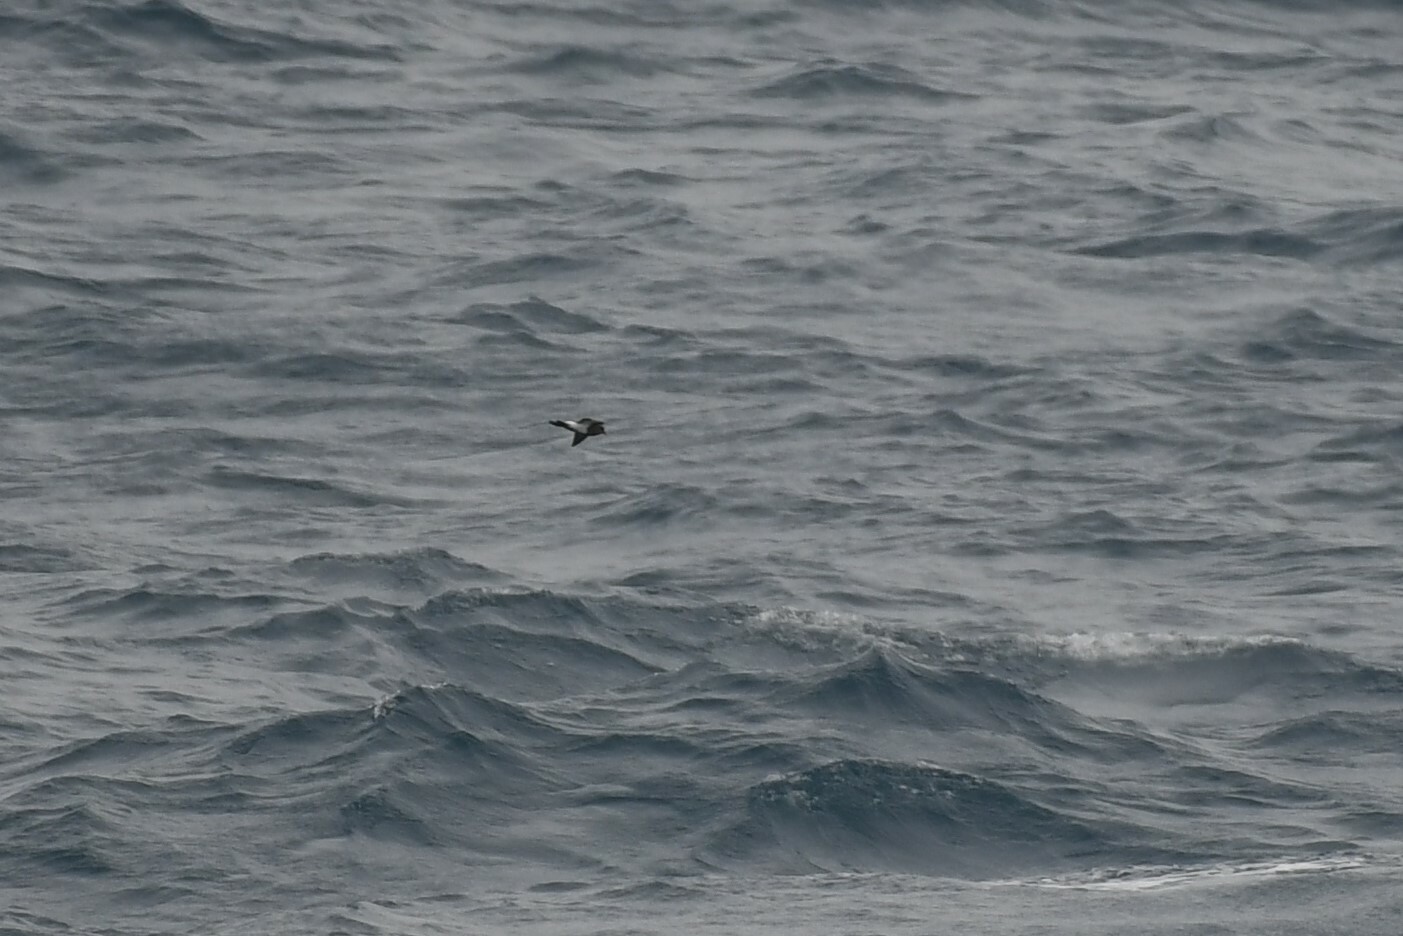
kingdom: Animalia
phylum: Chordata
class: Aves
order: Procellariiformes
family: Hydrobatidae
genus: Fregetta
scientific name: Fregetta tropica
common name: Black-bellied storm-petrel
